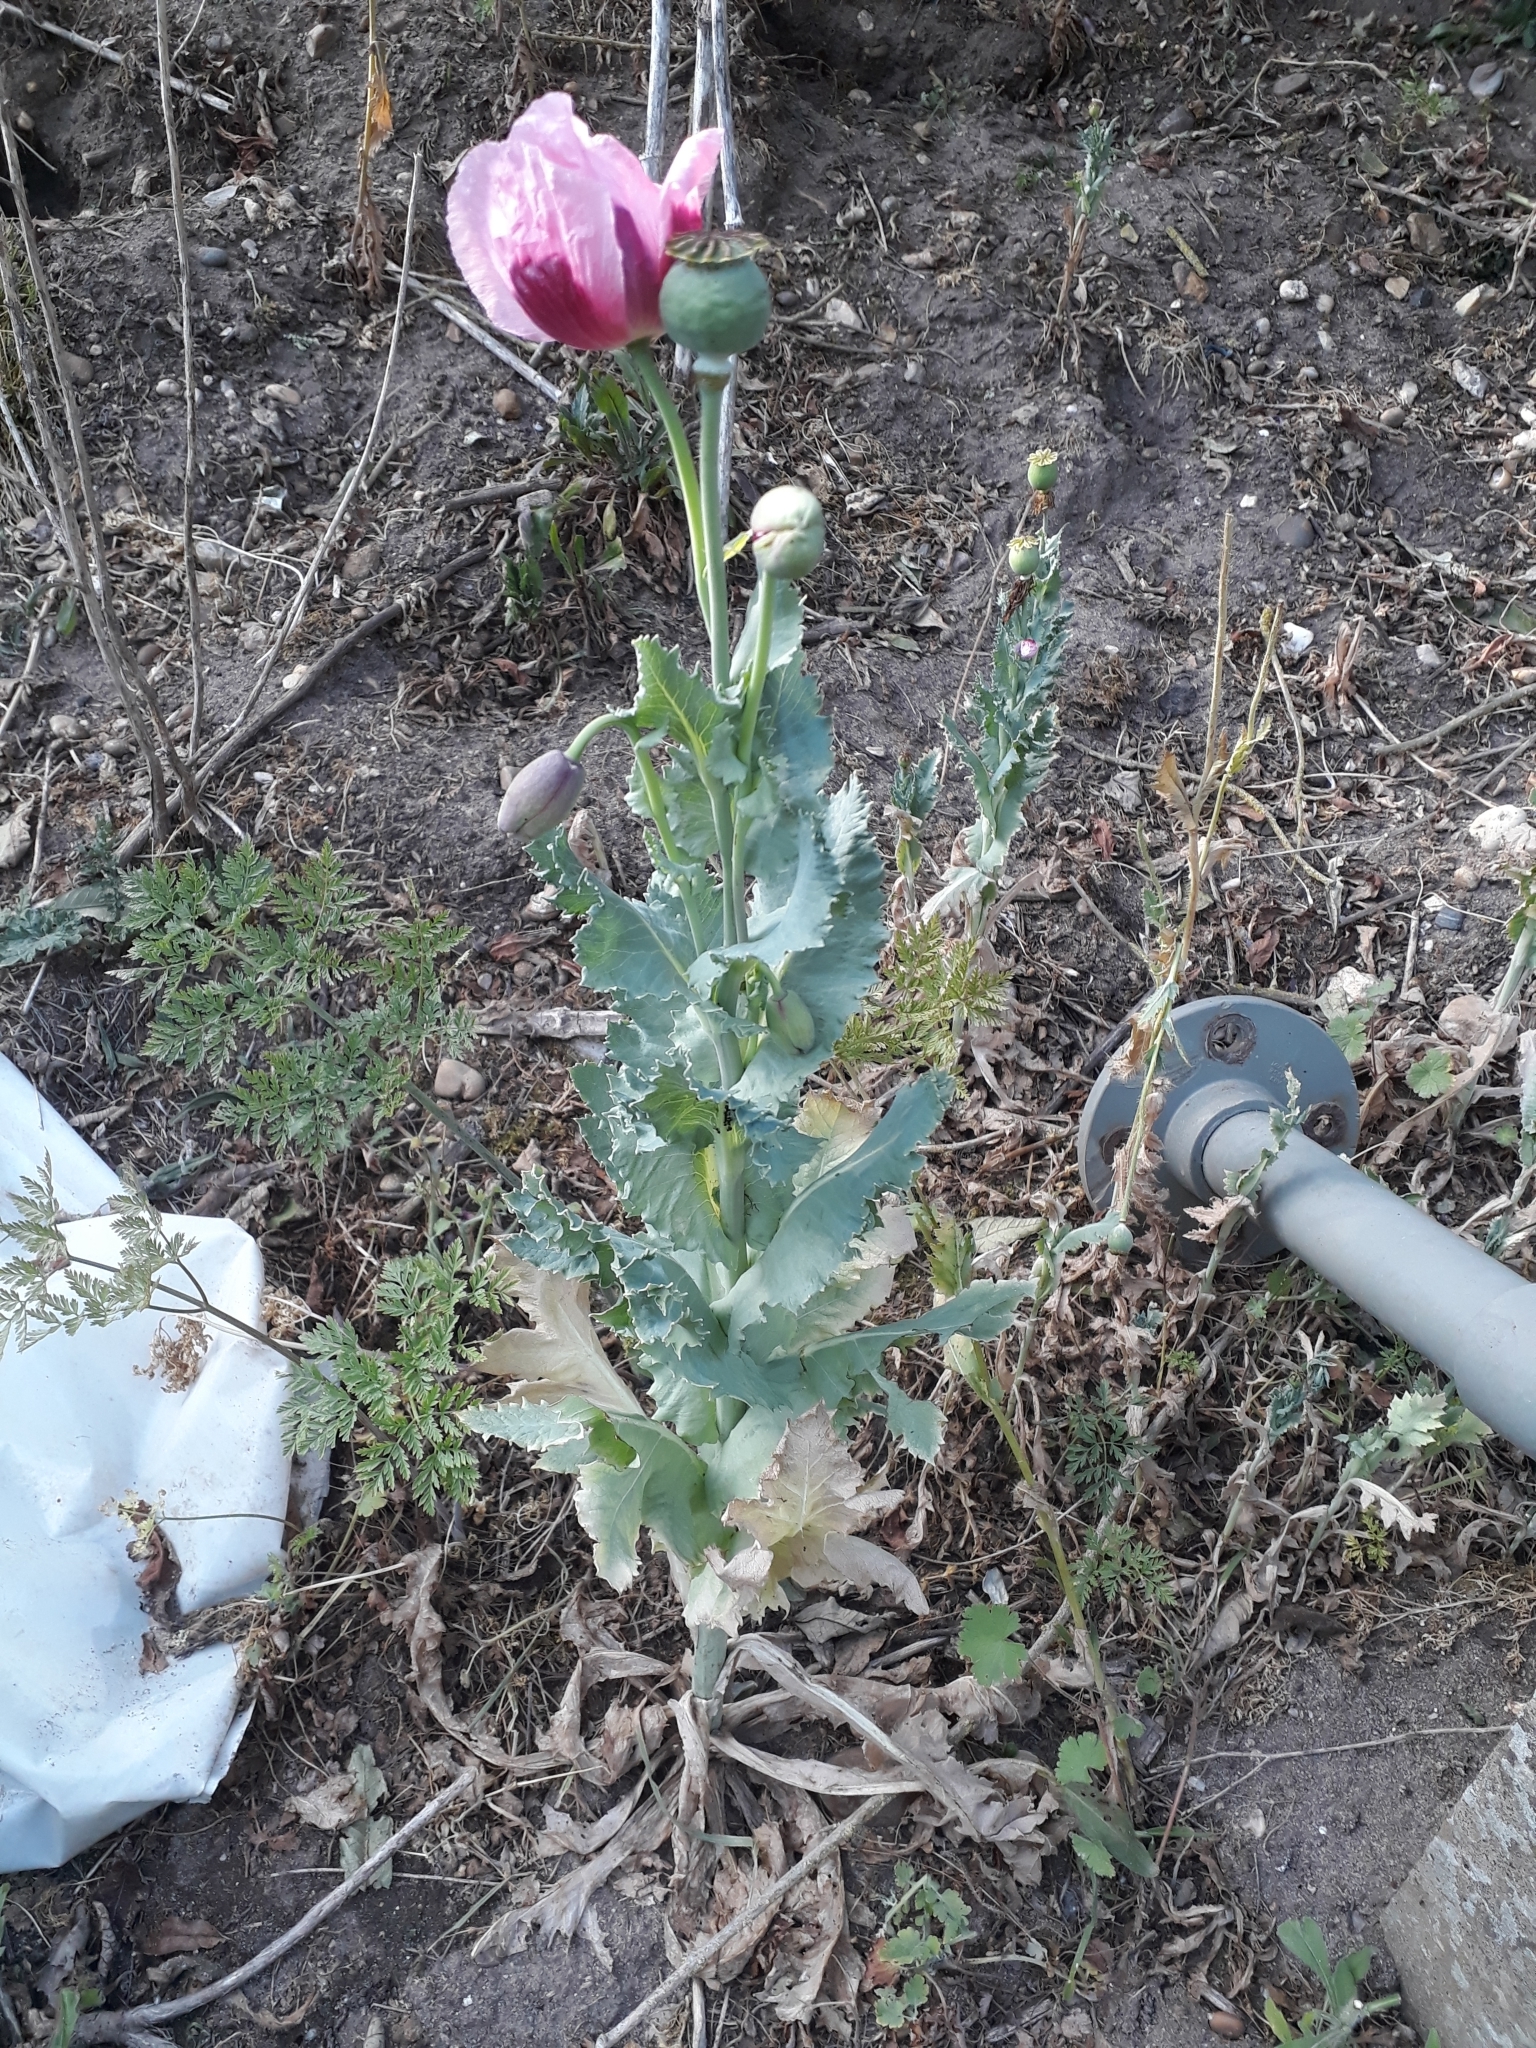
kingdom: Plantae
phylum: Tracheophyta
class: Magnoliopsida
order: Ranunculales
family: Papaveraceae
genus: Papaver
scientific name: Papaver somniferum
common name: Opium poppy
